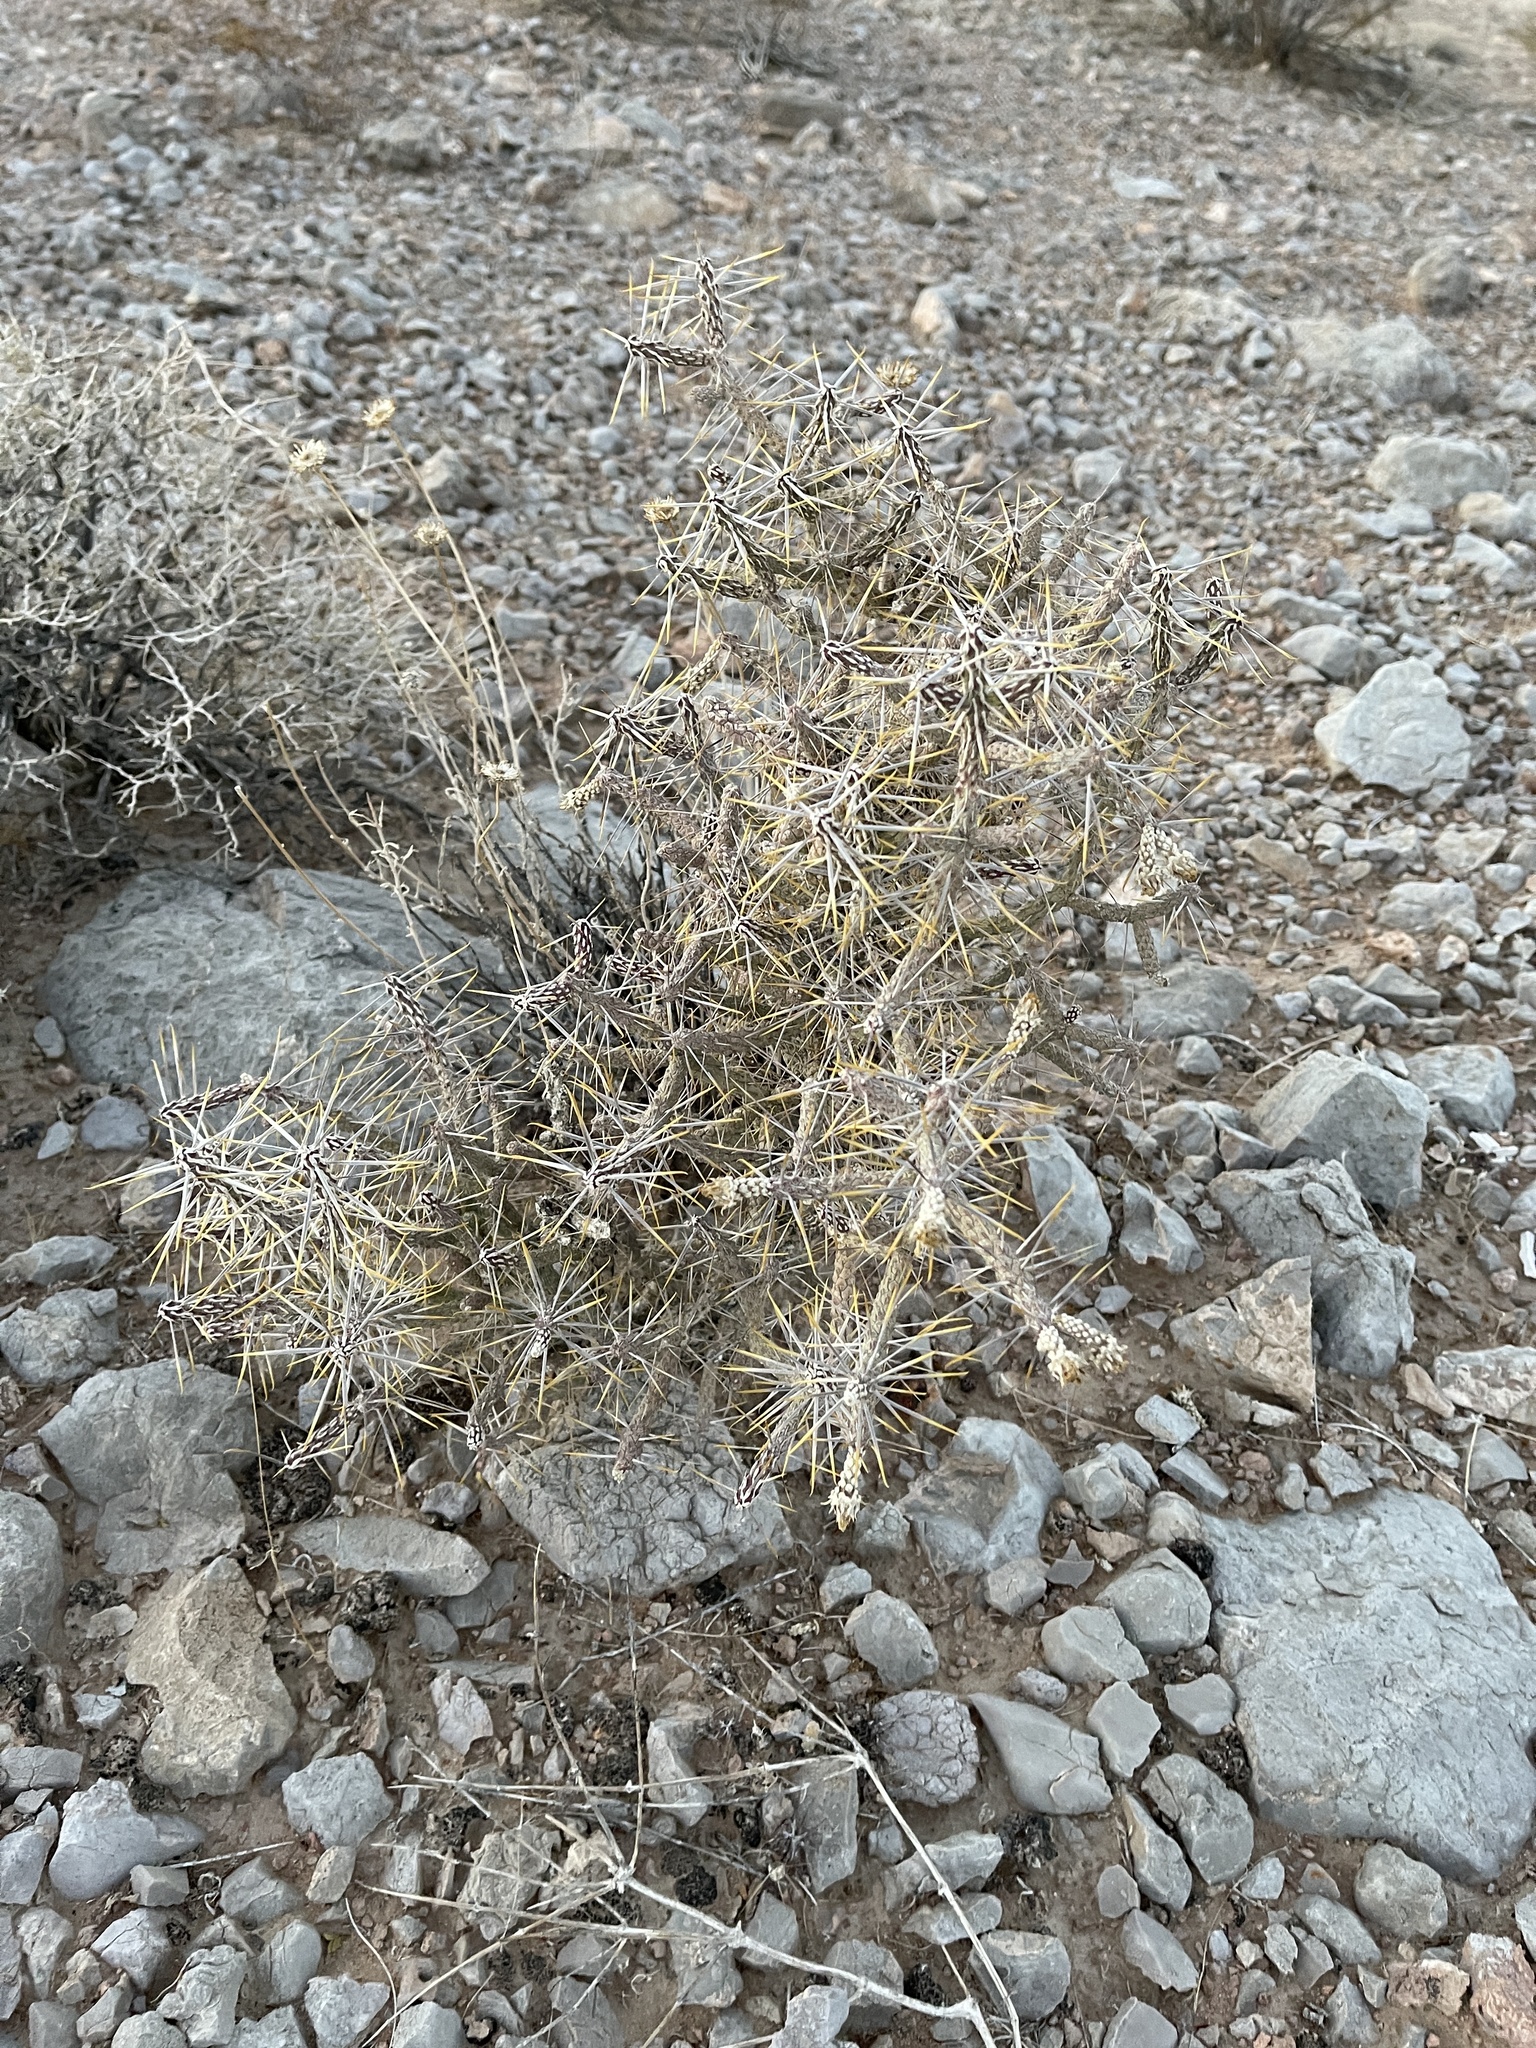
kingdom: Plantae
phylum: Tracheophyta
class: Magnoliopsida
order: Caryophyllales
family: Cactaceae
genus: Cylindropuntia
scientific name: Cylindropuntia ramosissima
